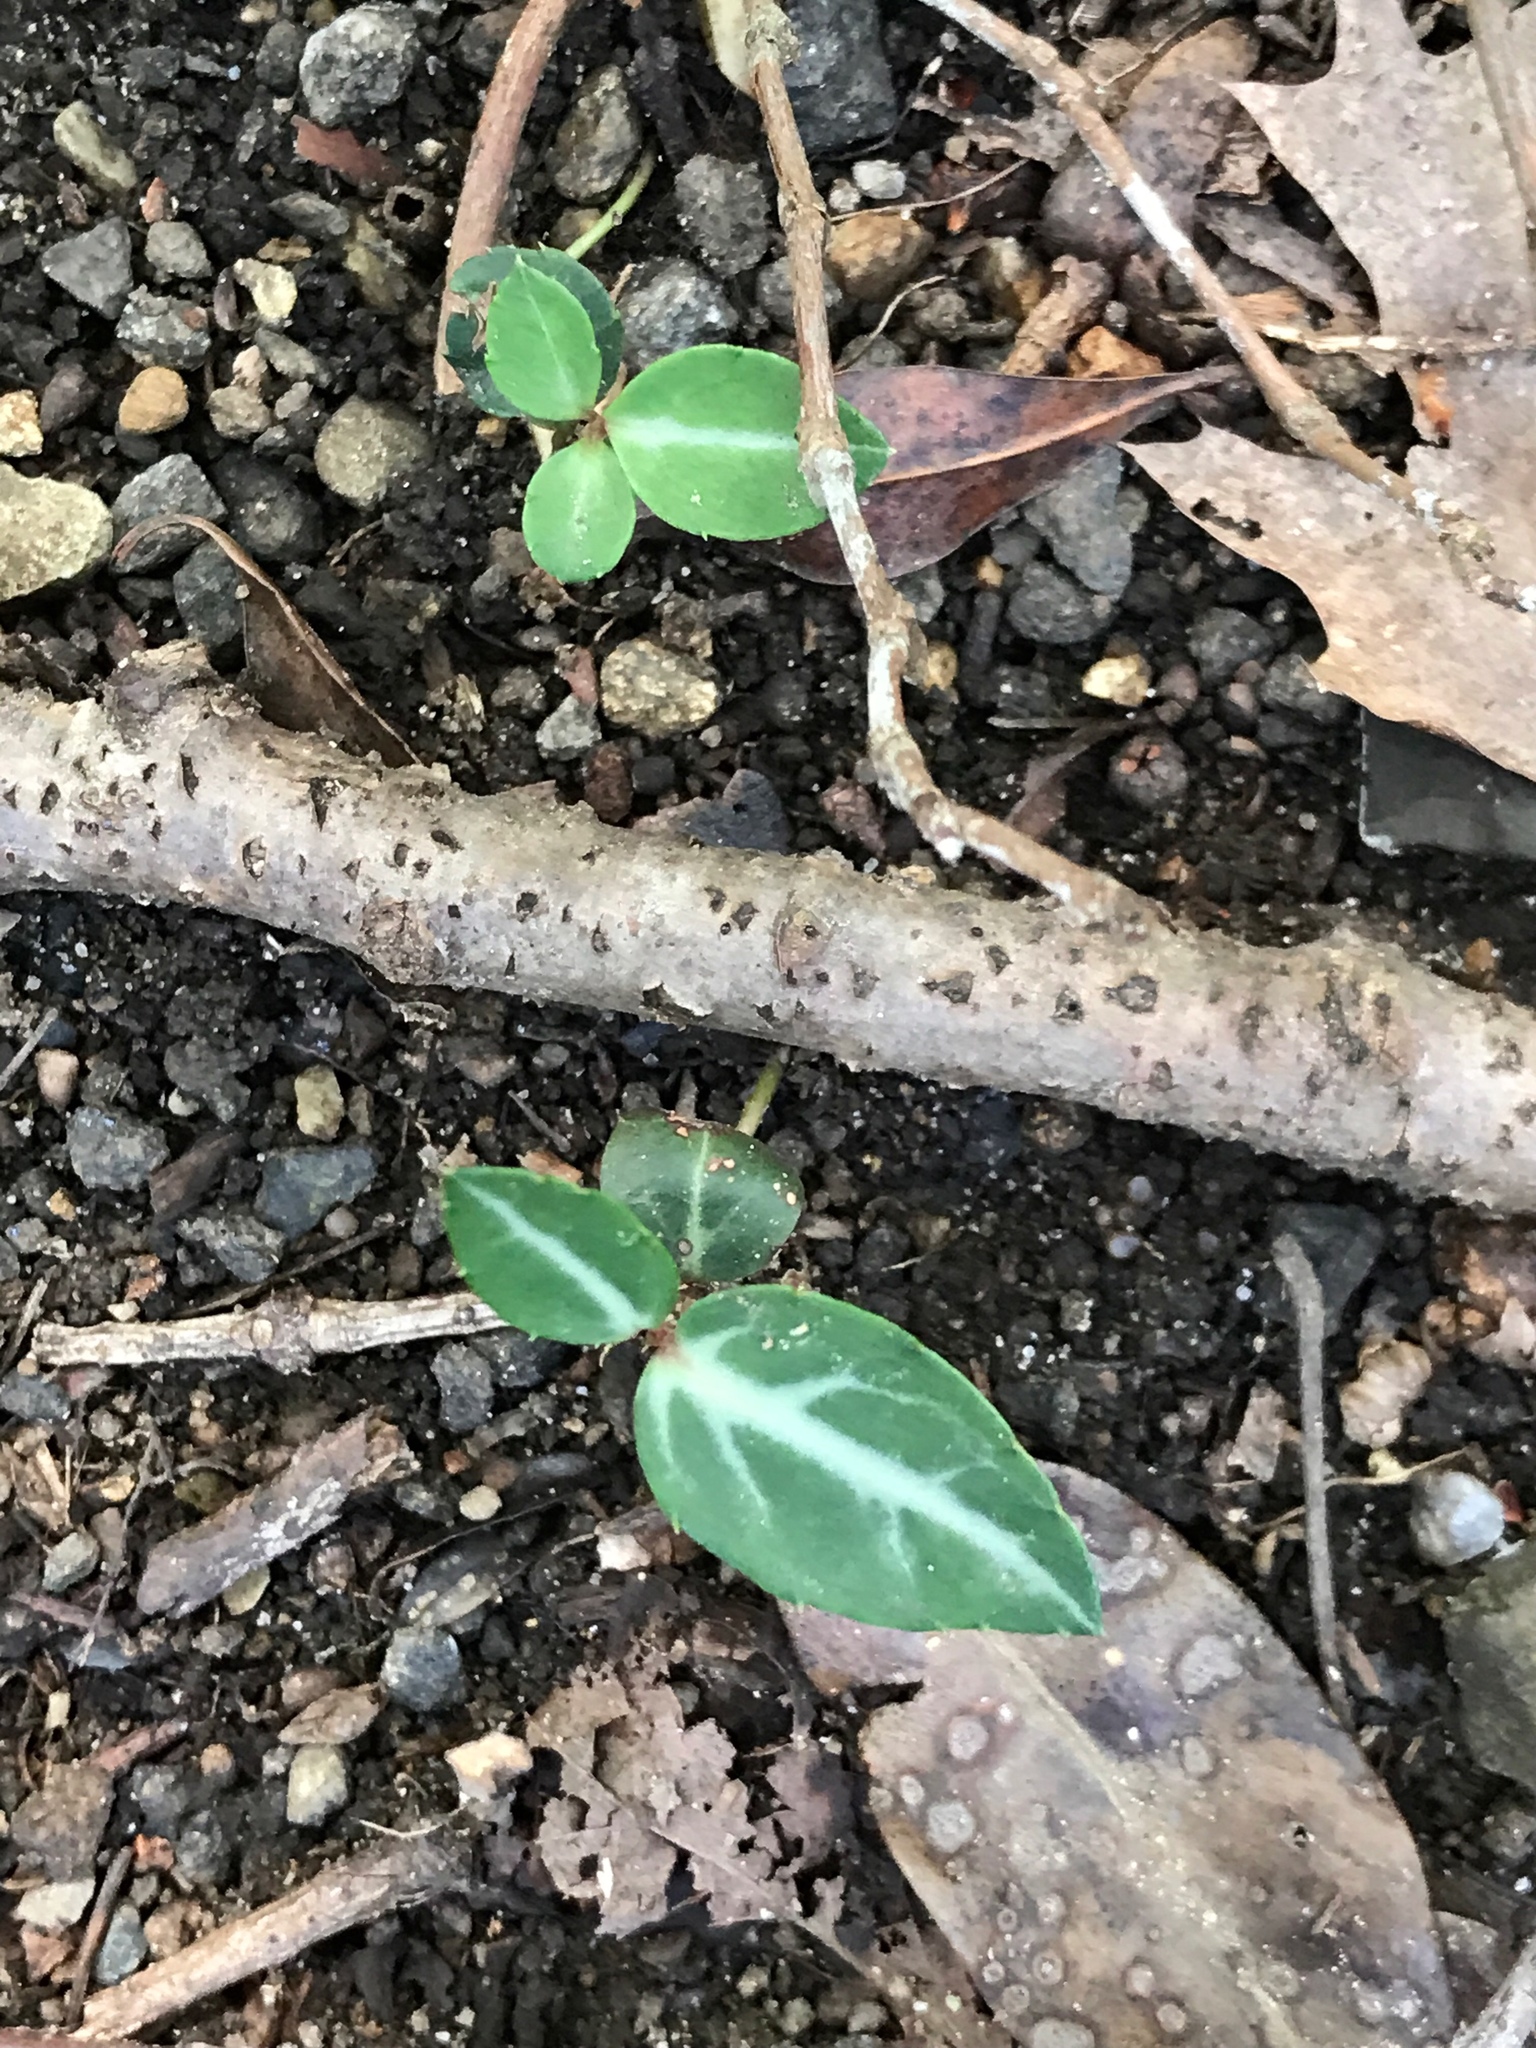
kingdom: Plantae
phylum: Tracheophyta
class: Magnoliopsida
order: Ericales
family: Ericaceae
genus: Chimaphila
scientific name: Chimaphila maculata
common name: Spotted pipsissewa
